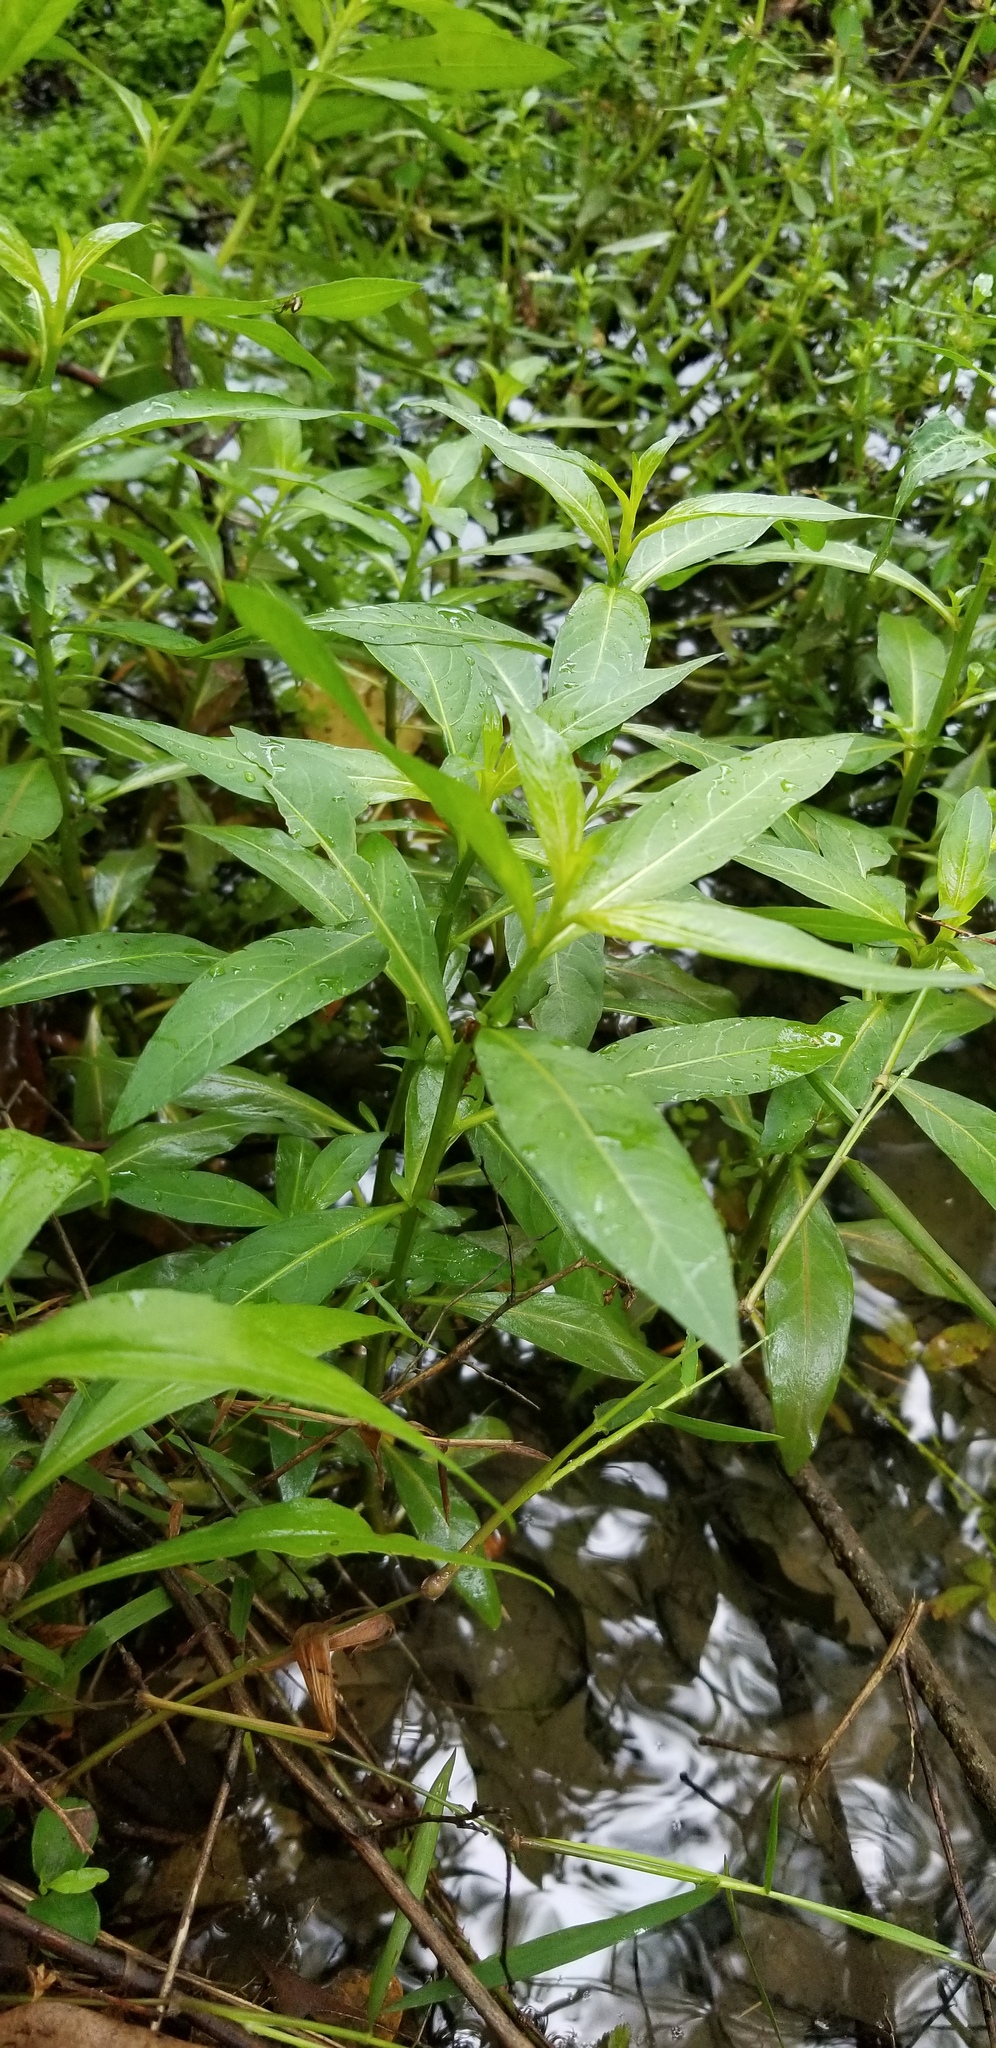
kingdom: Plantae
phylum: Tracheophyta
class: Magnoliopsida
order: Caryophyllales
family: Amaranthaceae
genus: Alternanthera
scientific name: Alternanthera philoxeroides
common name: Alligatorweed
